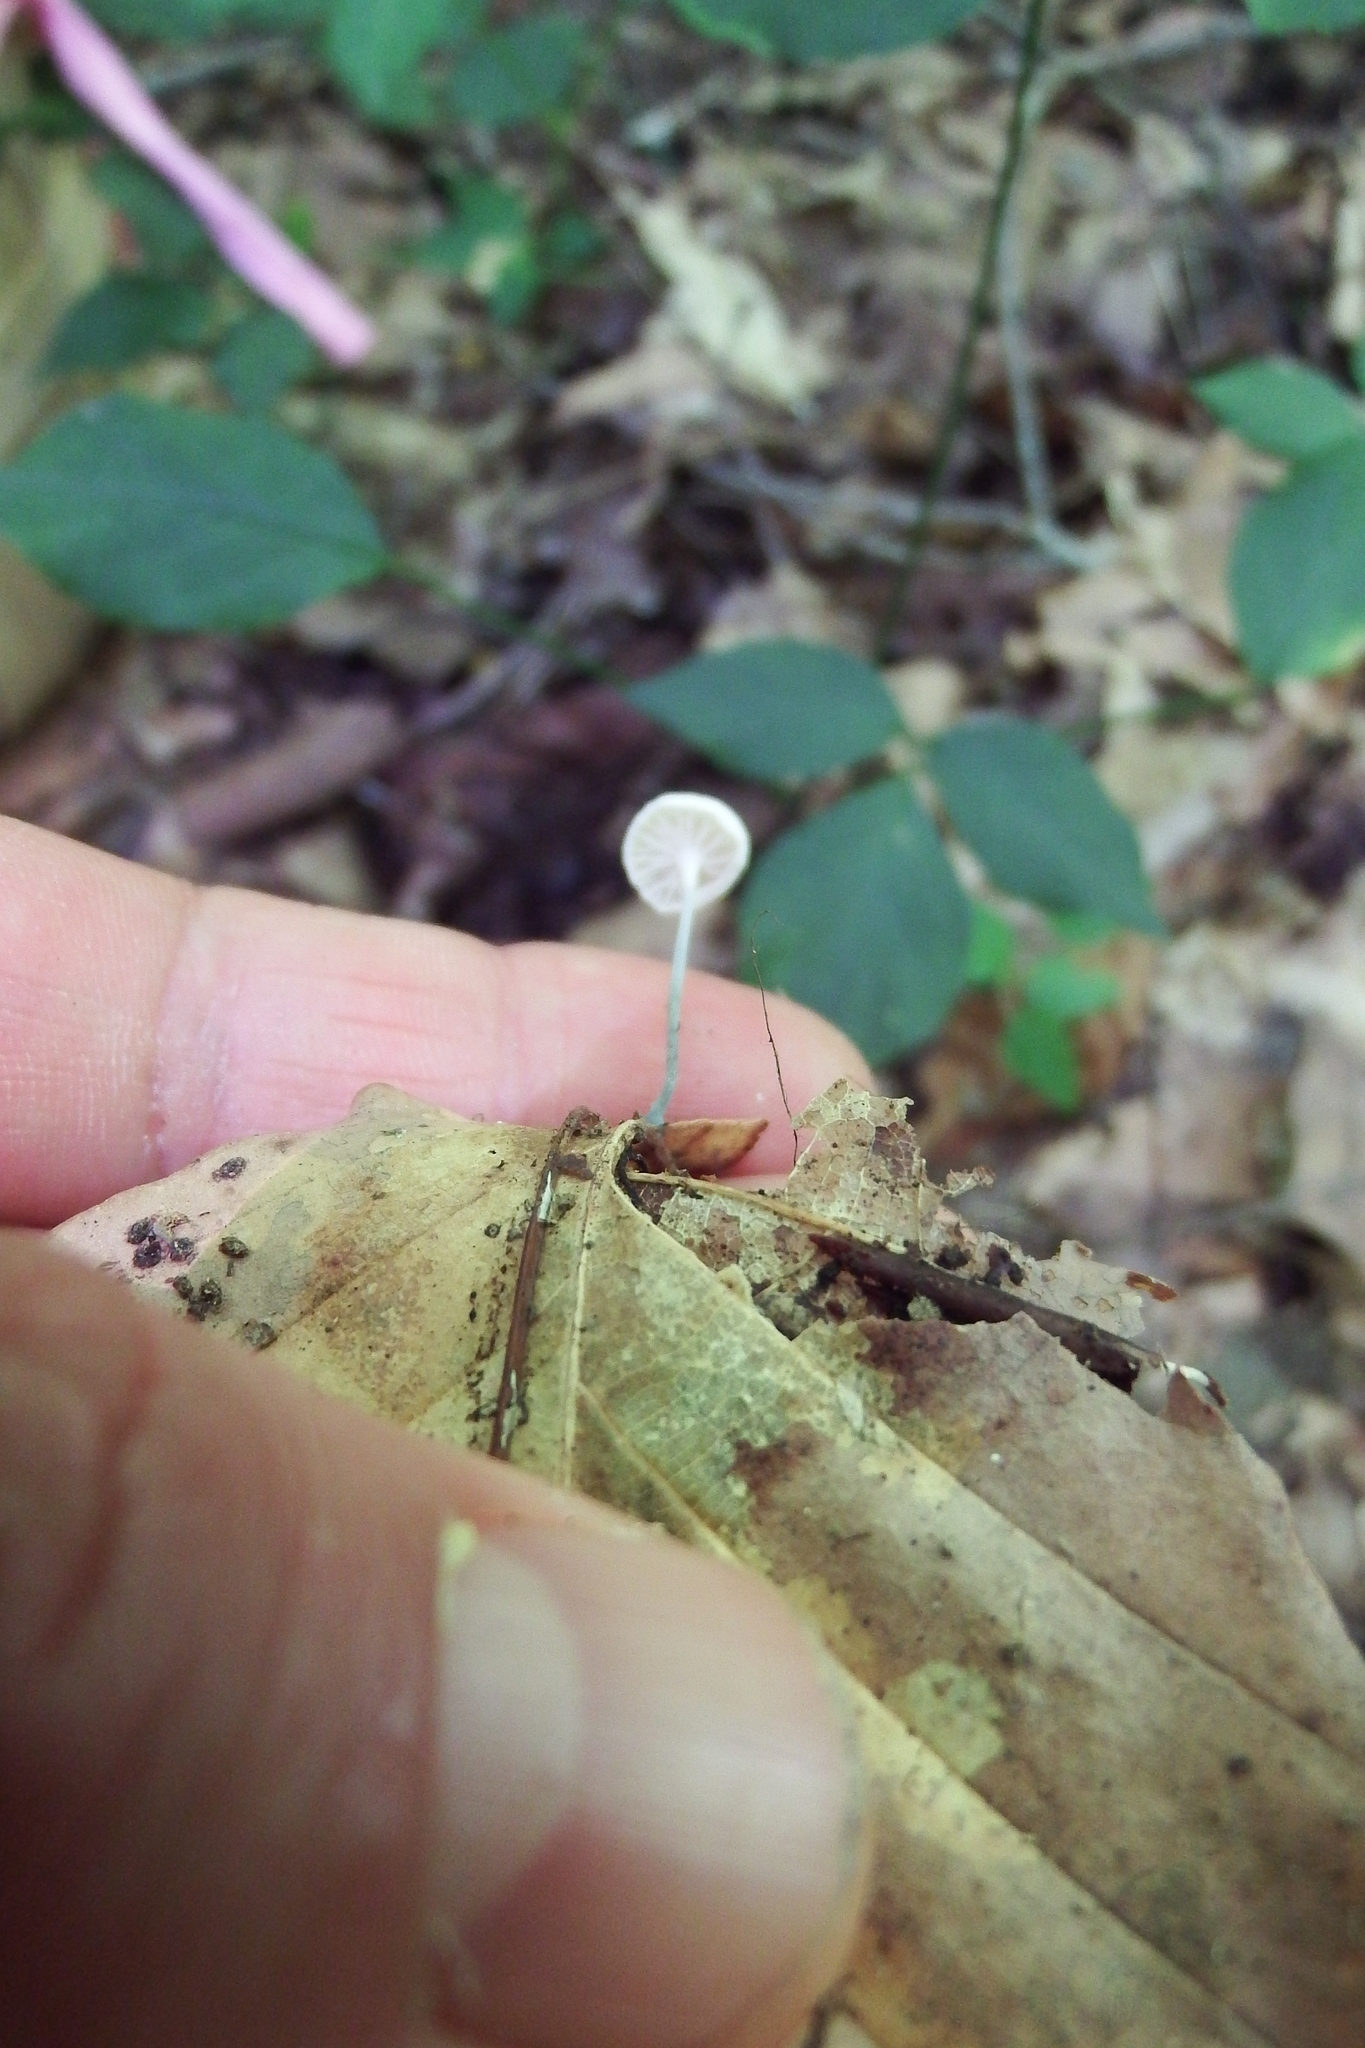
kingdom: Fungi
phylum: Basidiomycota
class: Agaricomycetes
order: Agaricales
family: Marasmiaceae
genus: Tetrapyrgos
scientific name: Tetrapyrgos nigripes
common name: Black-stalked marasmius
